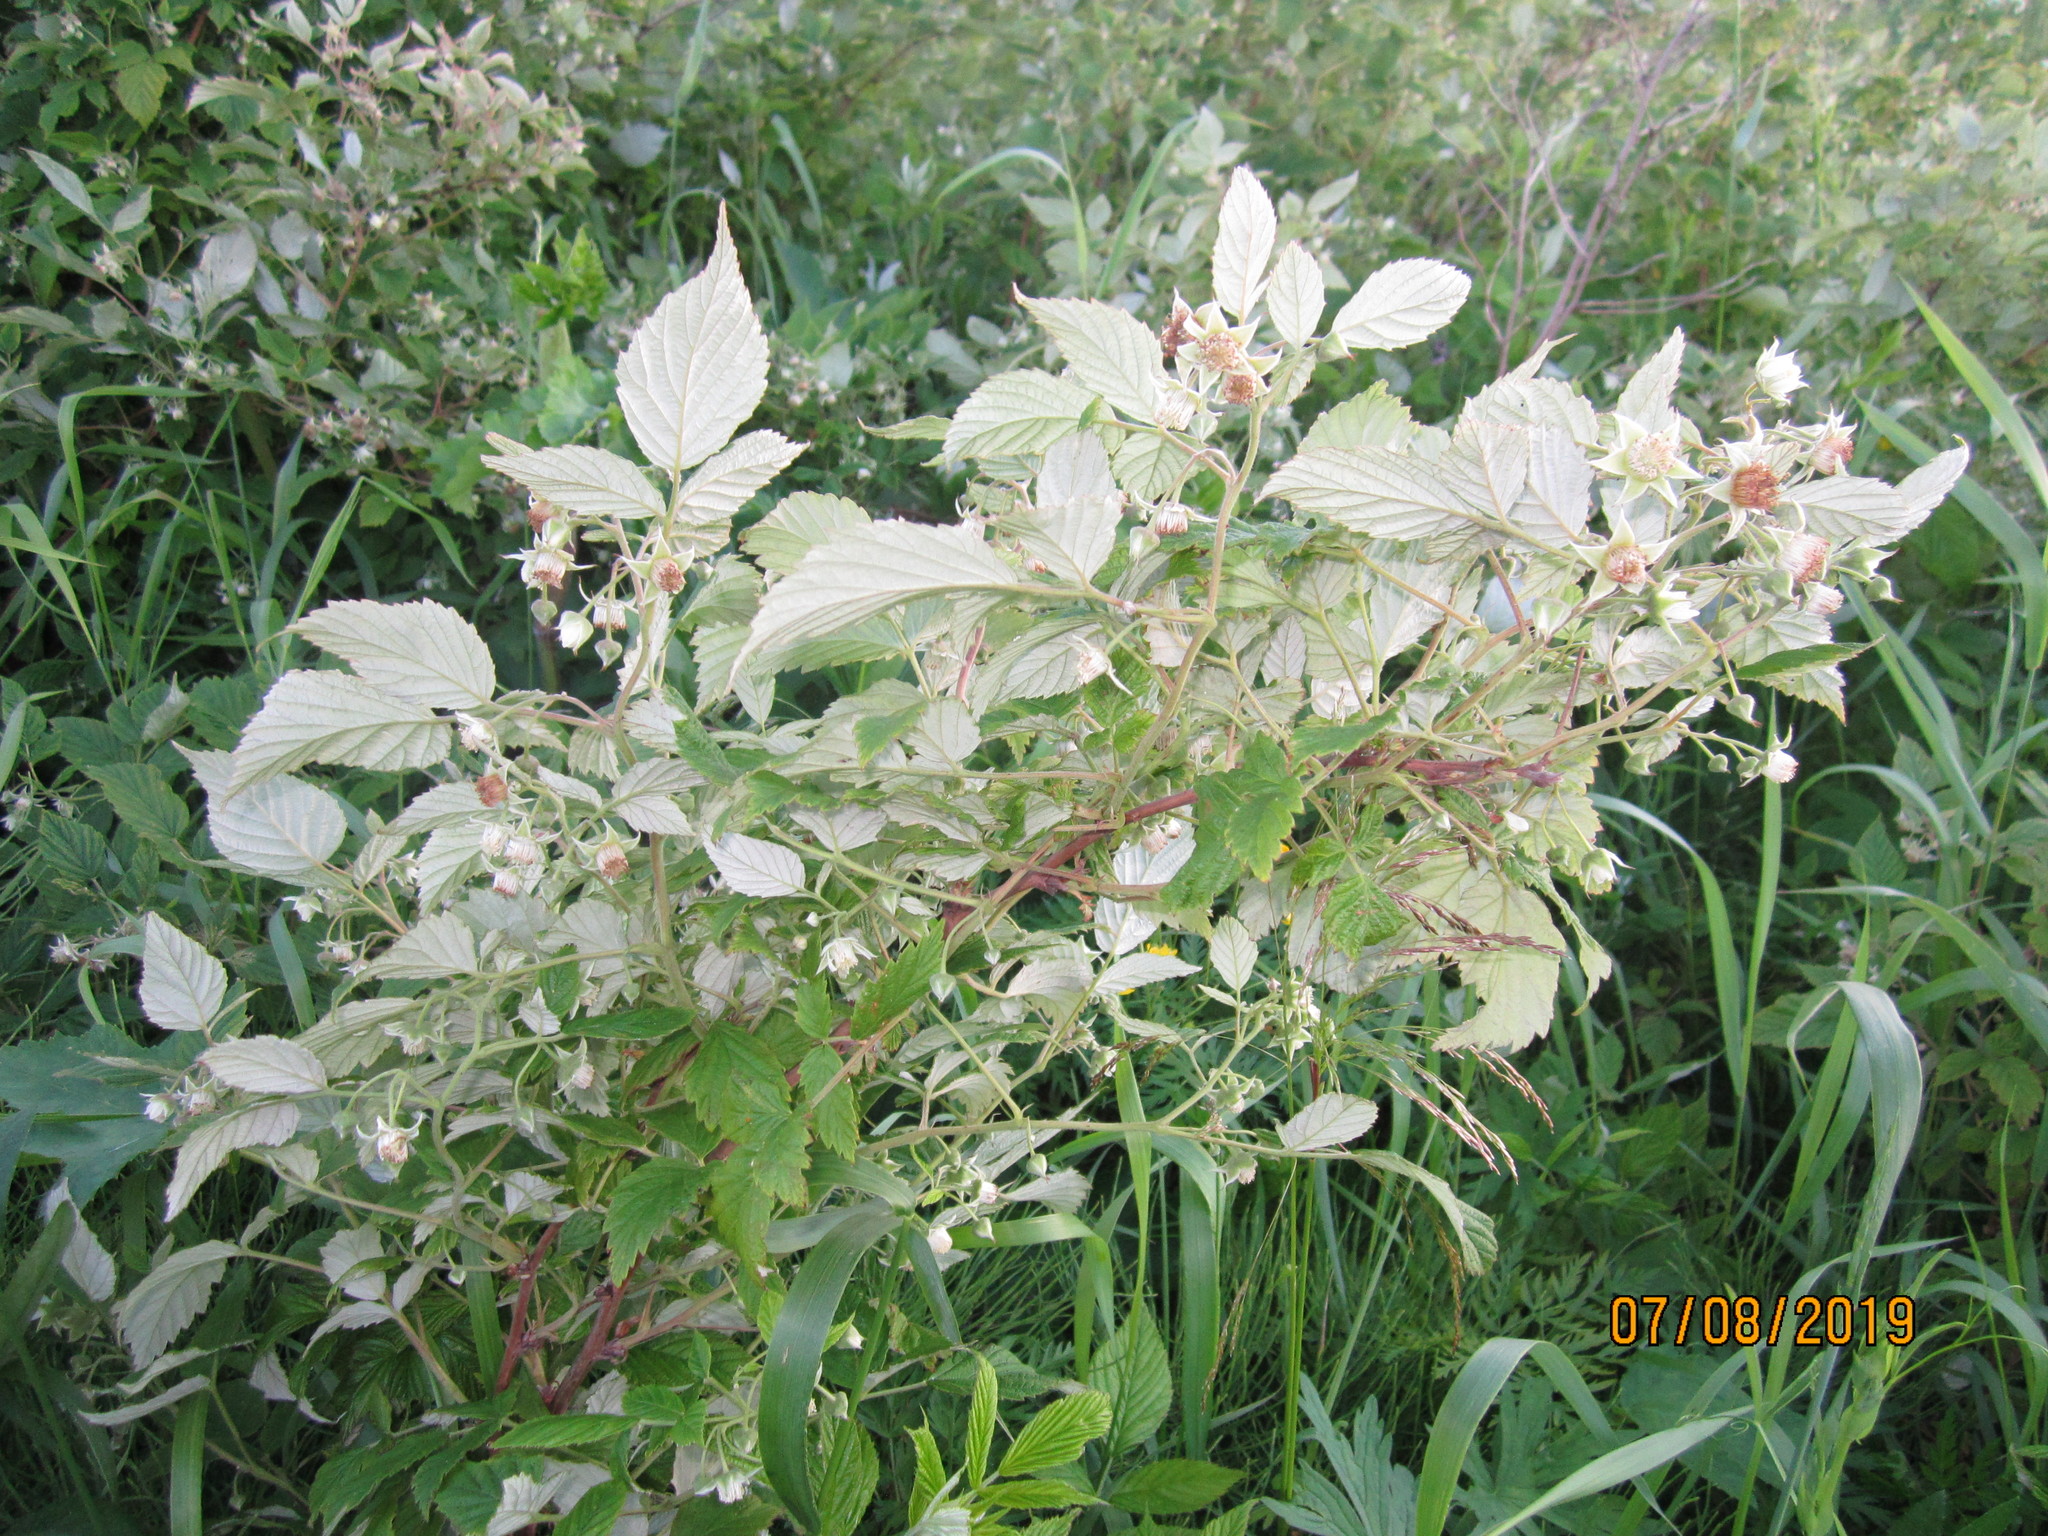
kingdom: Plantae
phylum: Tracheophyta
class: Magnoliopsida
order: Rosales
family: Rosaceae
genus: Rubus
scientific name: Rubus idaeus
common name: Raspberry
